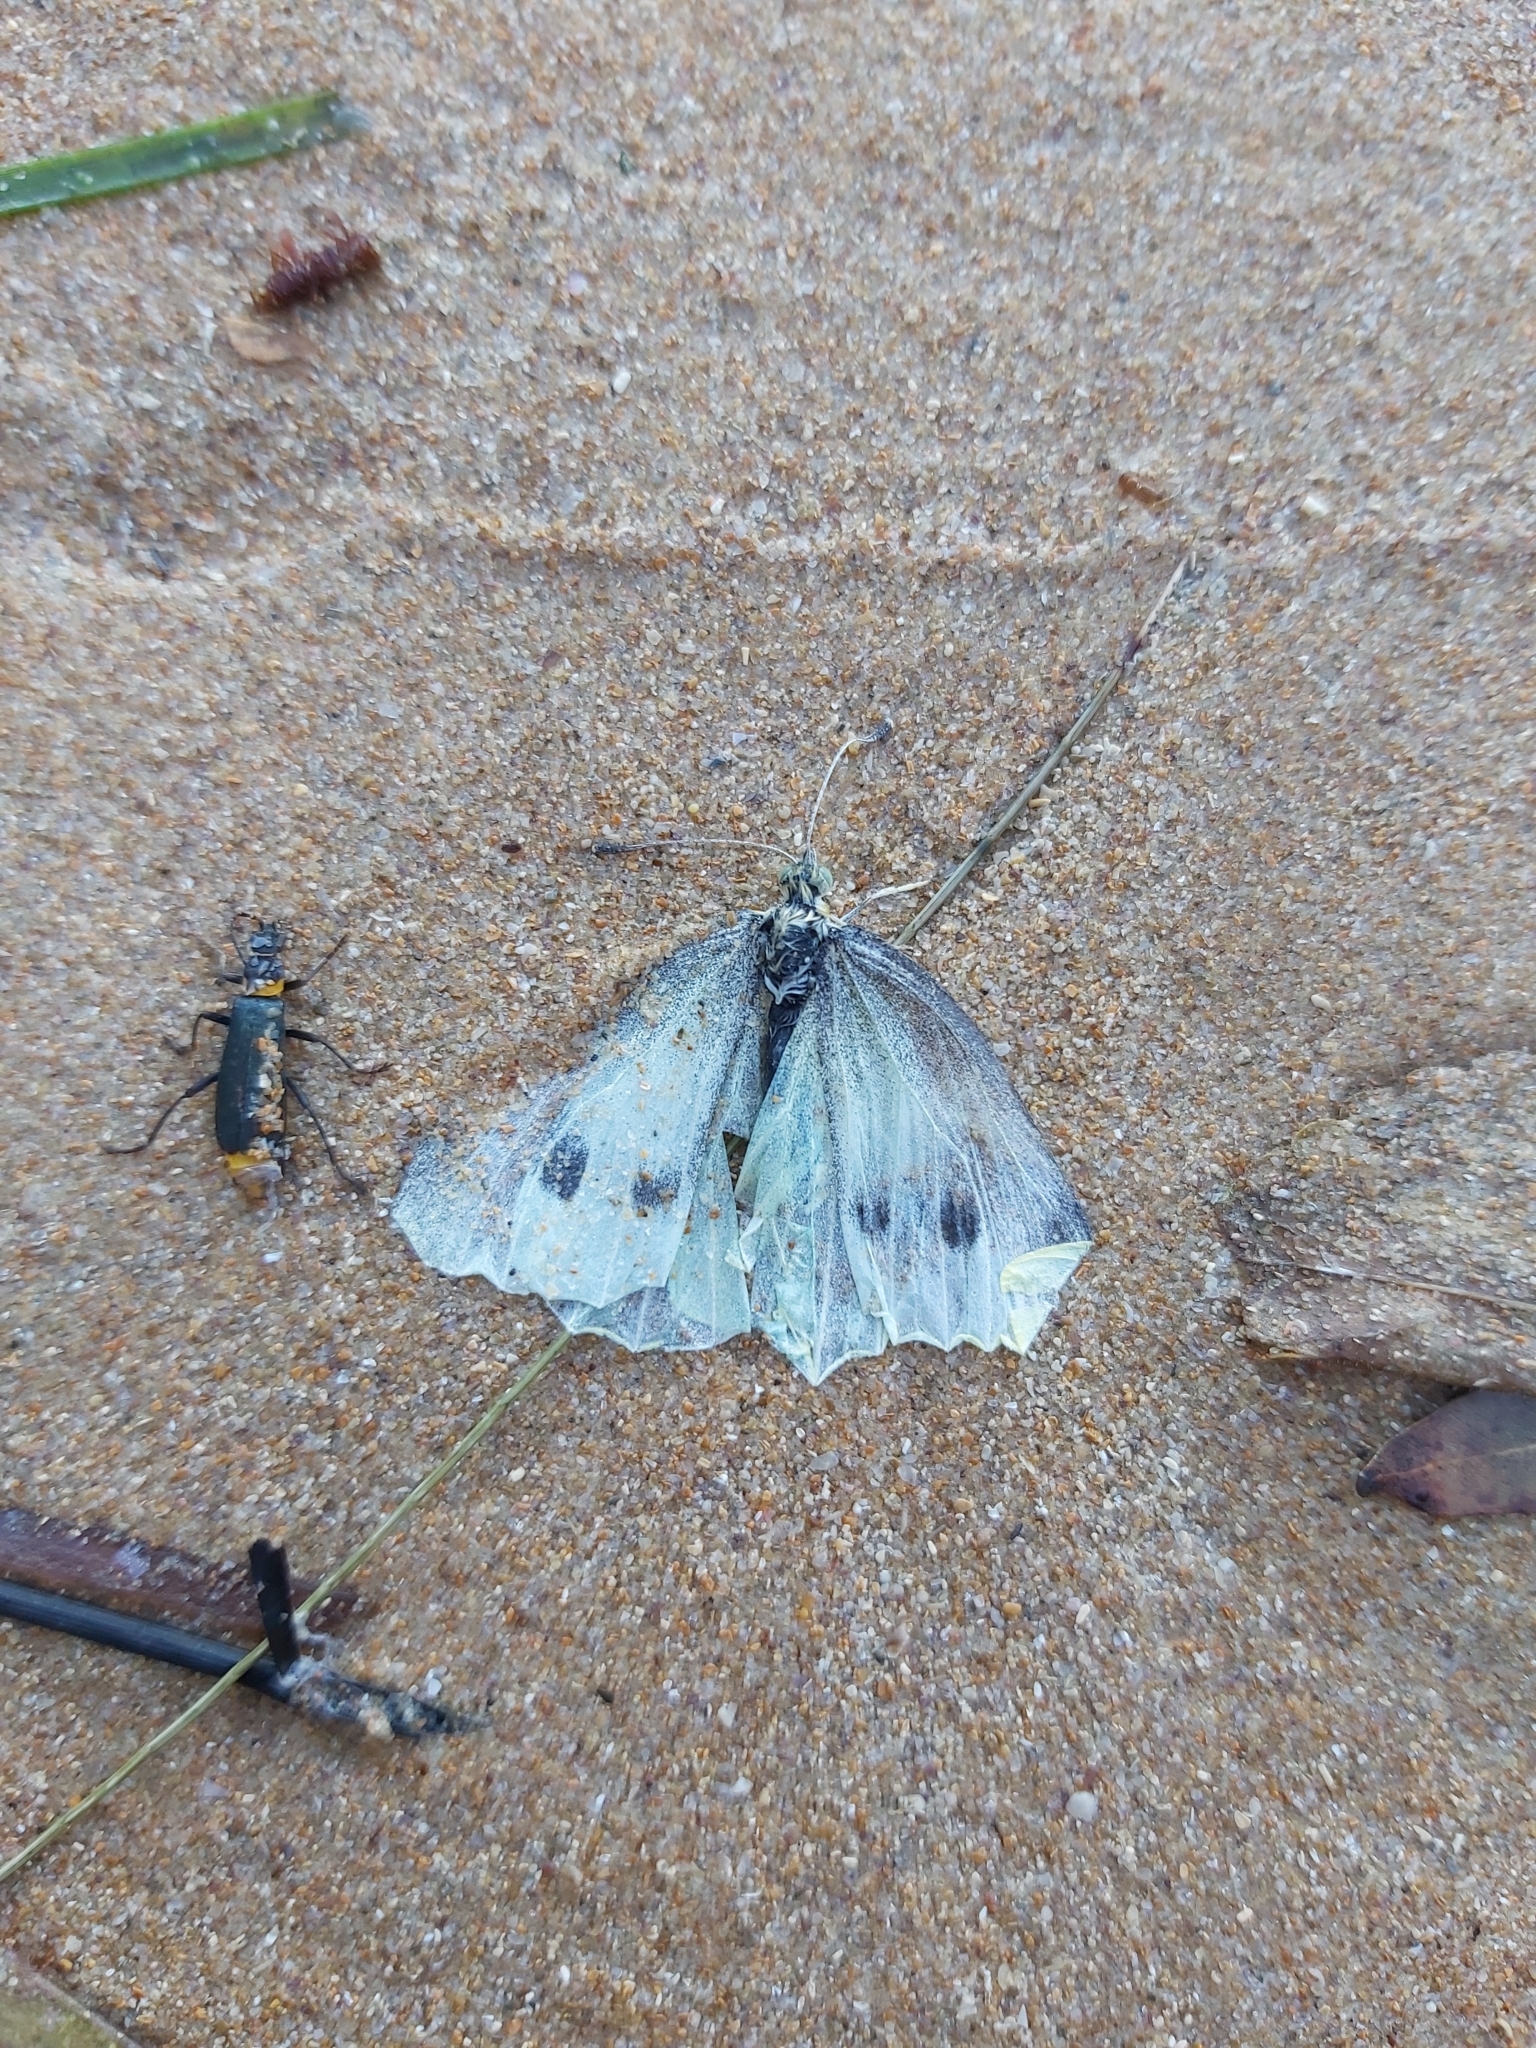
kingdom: Animalia
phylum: Arthropoda
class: Insecta
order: Lepidoptera
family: Pieridae
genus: Pieris
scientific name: Pieris rapae
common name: Small white
